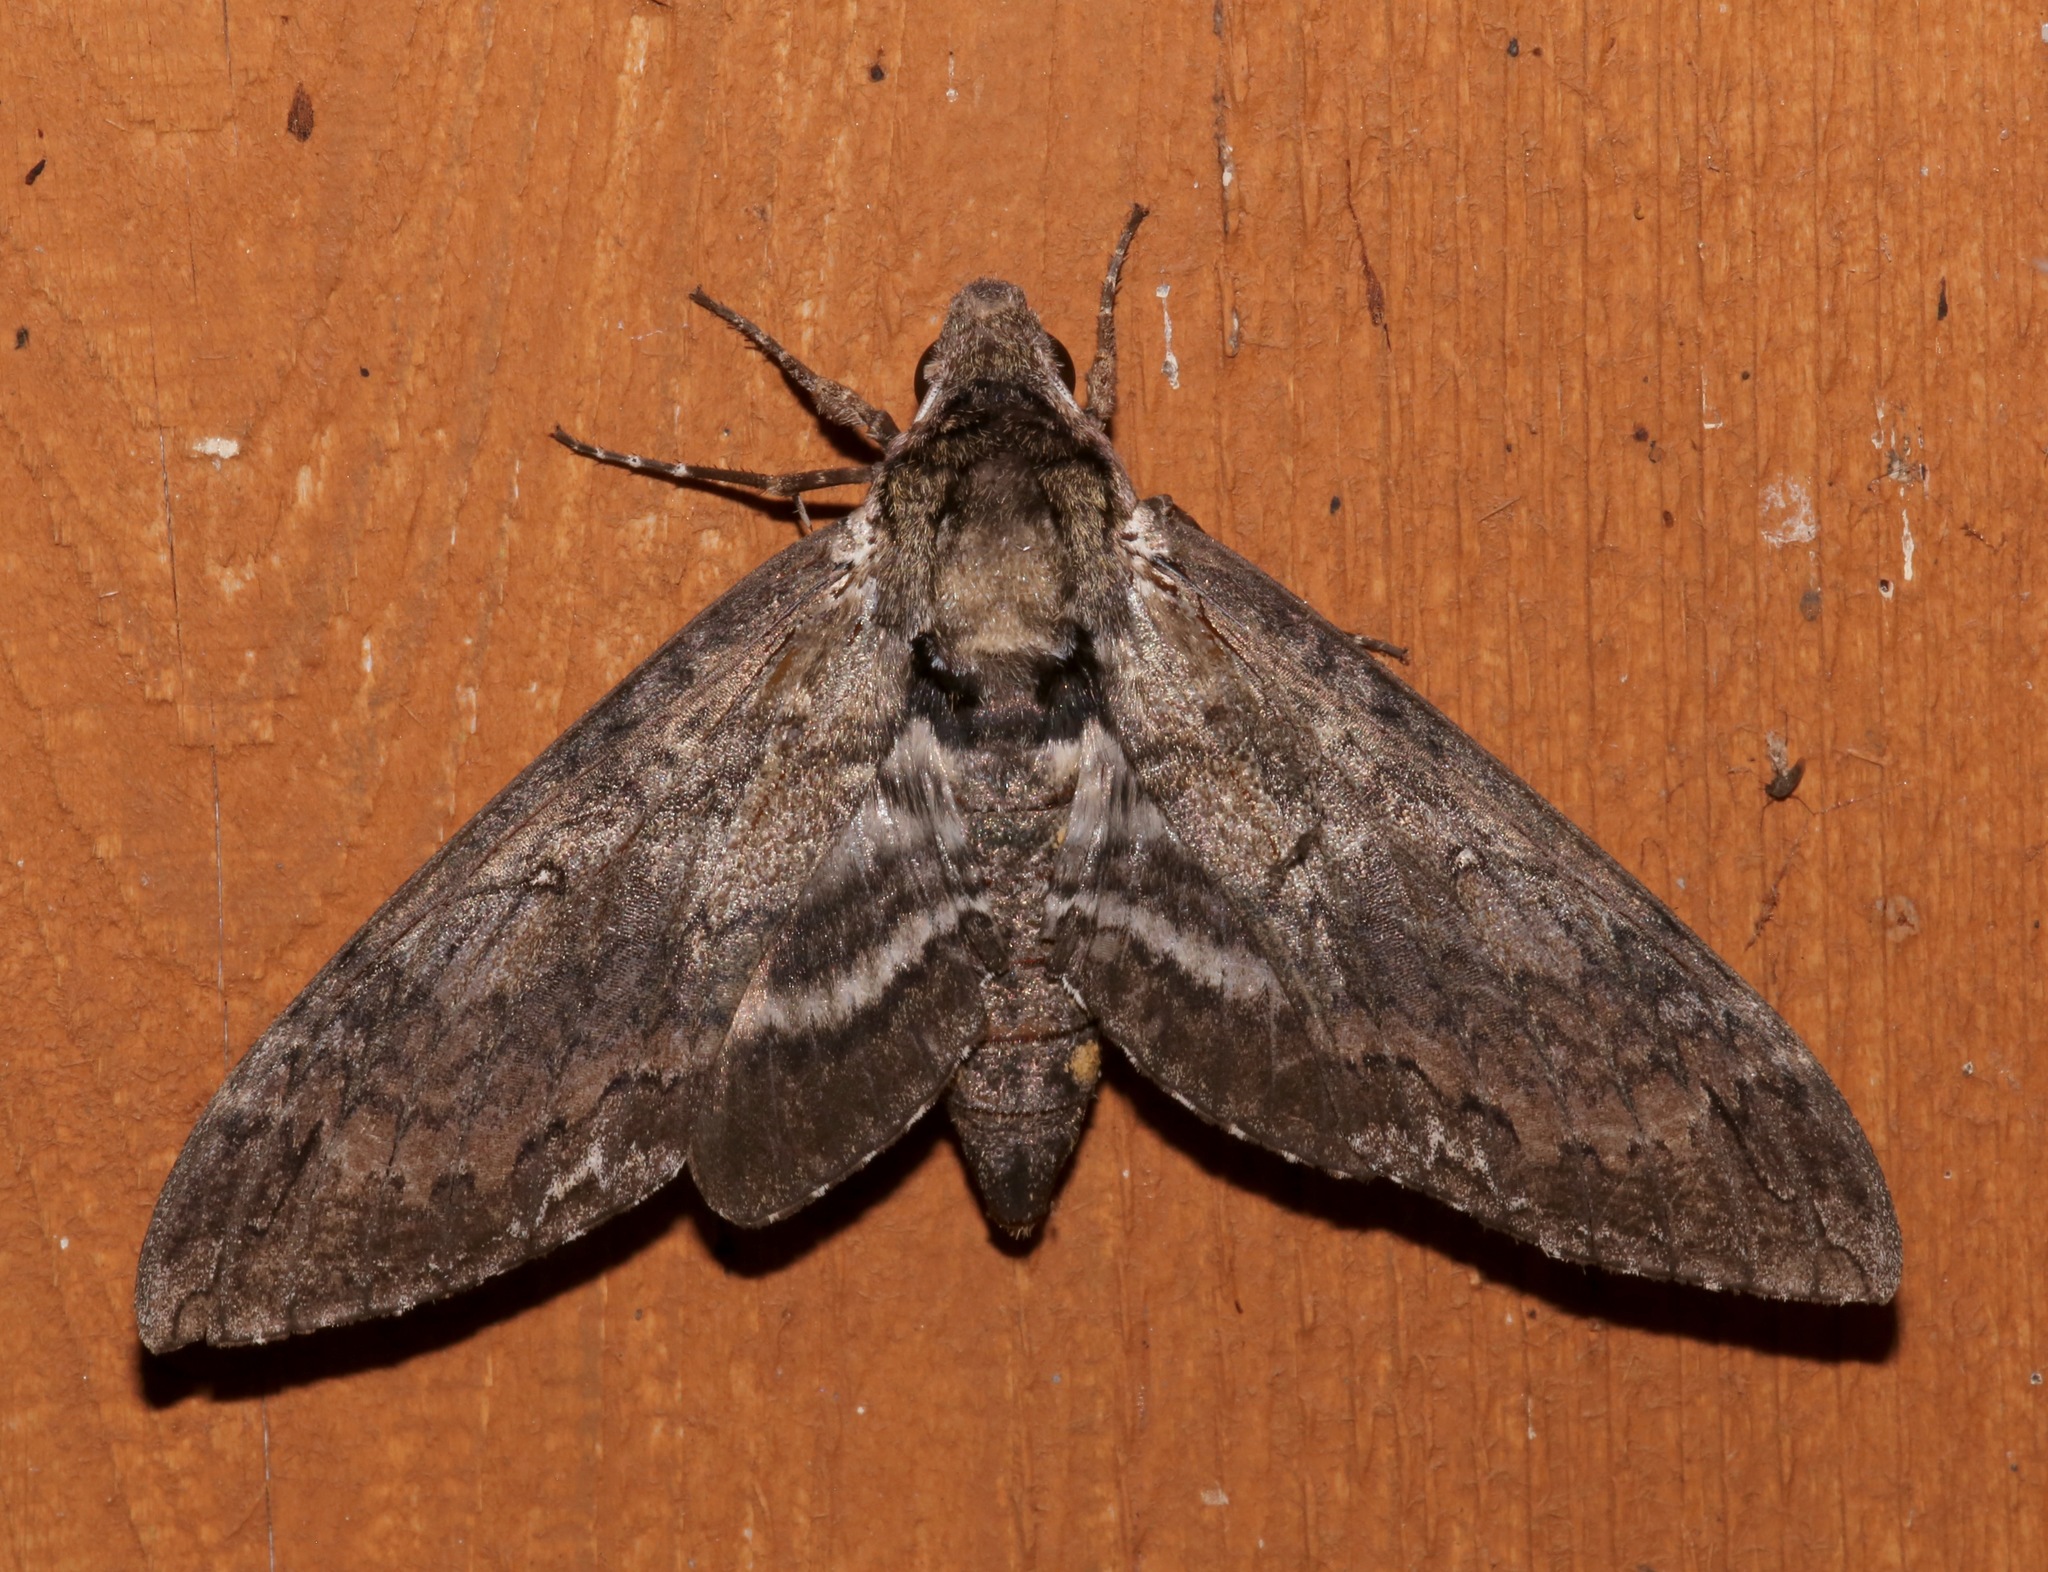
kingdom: Animalia
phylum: Arthropoda
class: Insecta
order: Lepidoptera
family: Sphingidae
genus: Manduca
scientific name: Manduca sexta
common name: Carolina sphinx
